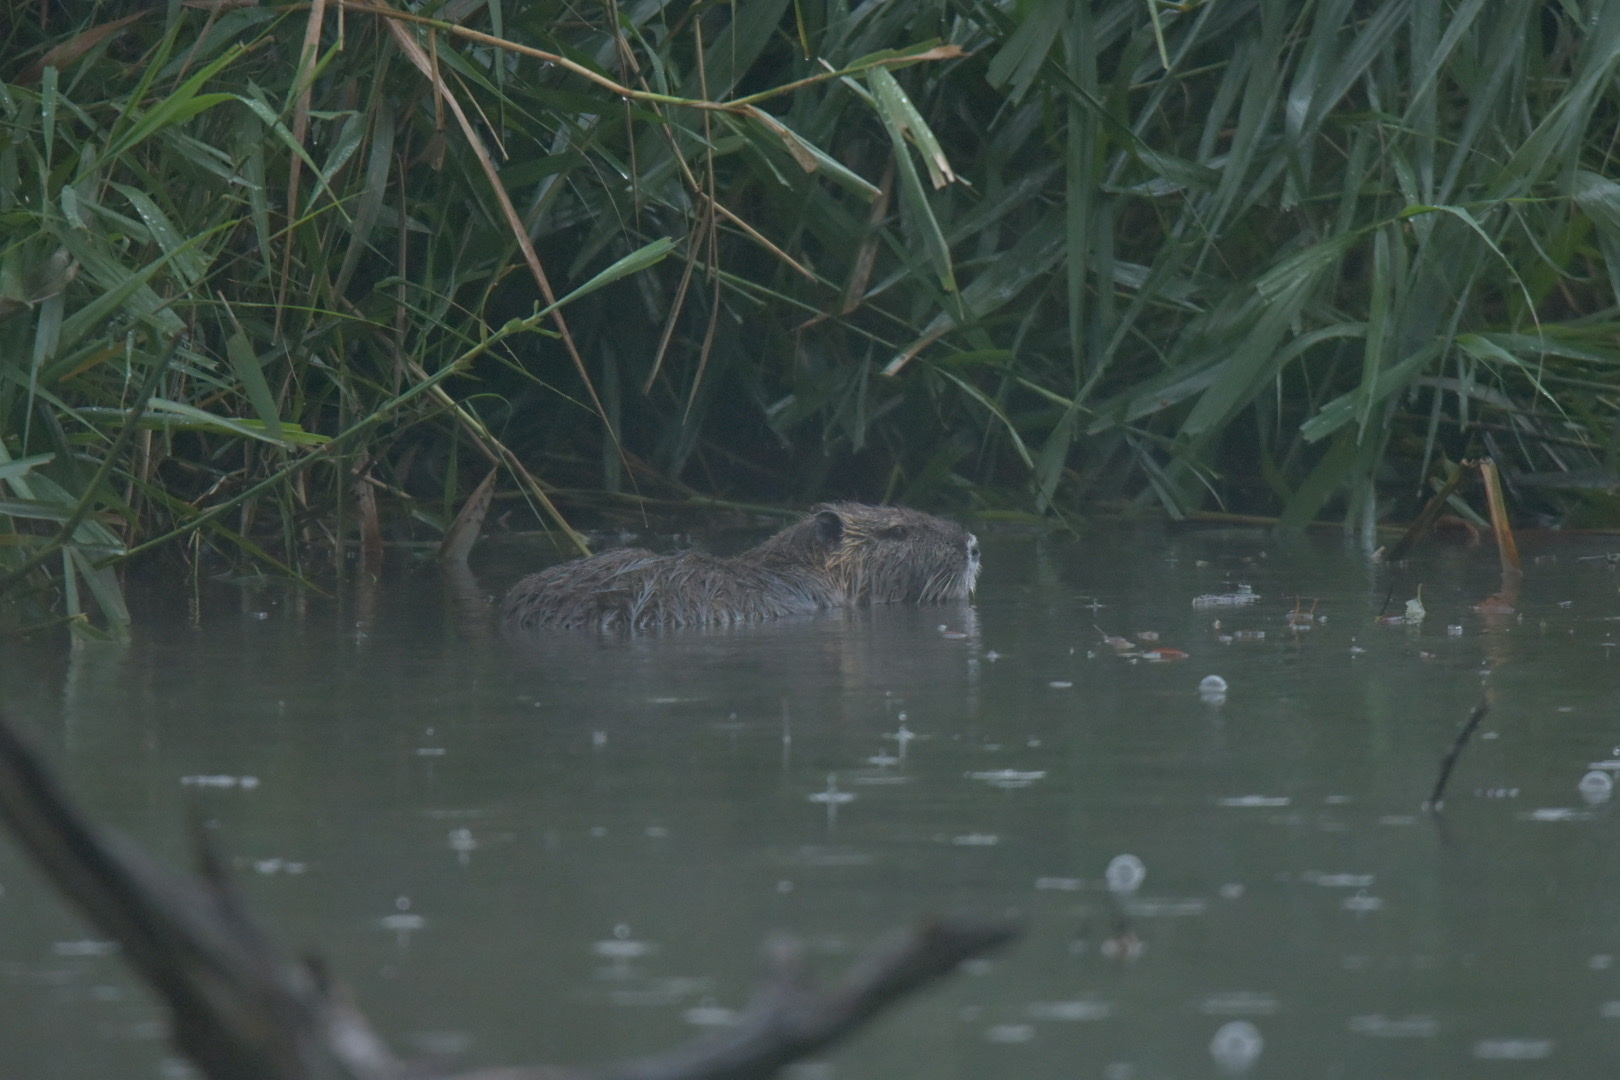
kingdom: Animalia
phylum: Chordata
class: Mammalia
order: Rodentia
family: Myocastoridae
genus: Myocastor
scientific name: Myocastor coypus
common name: Coypu
